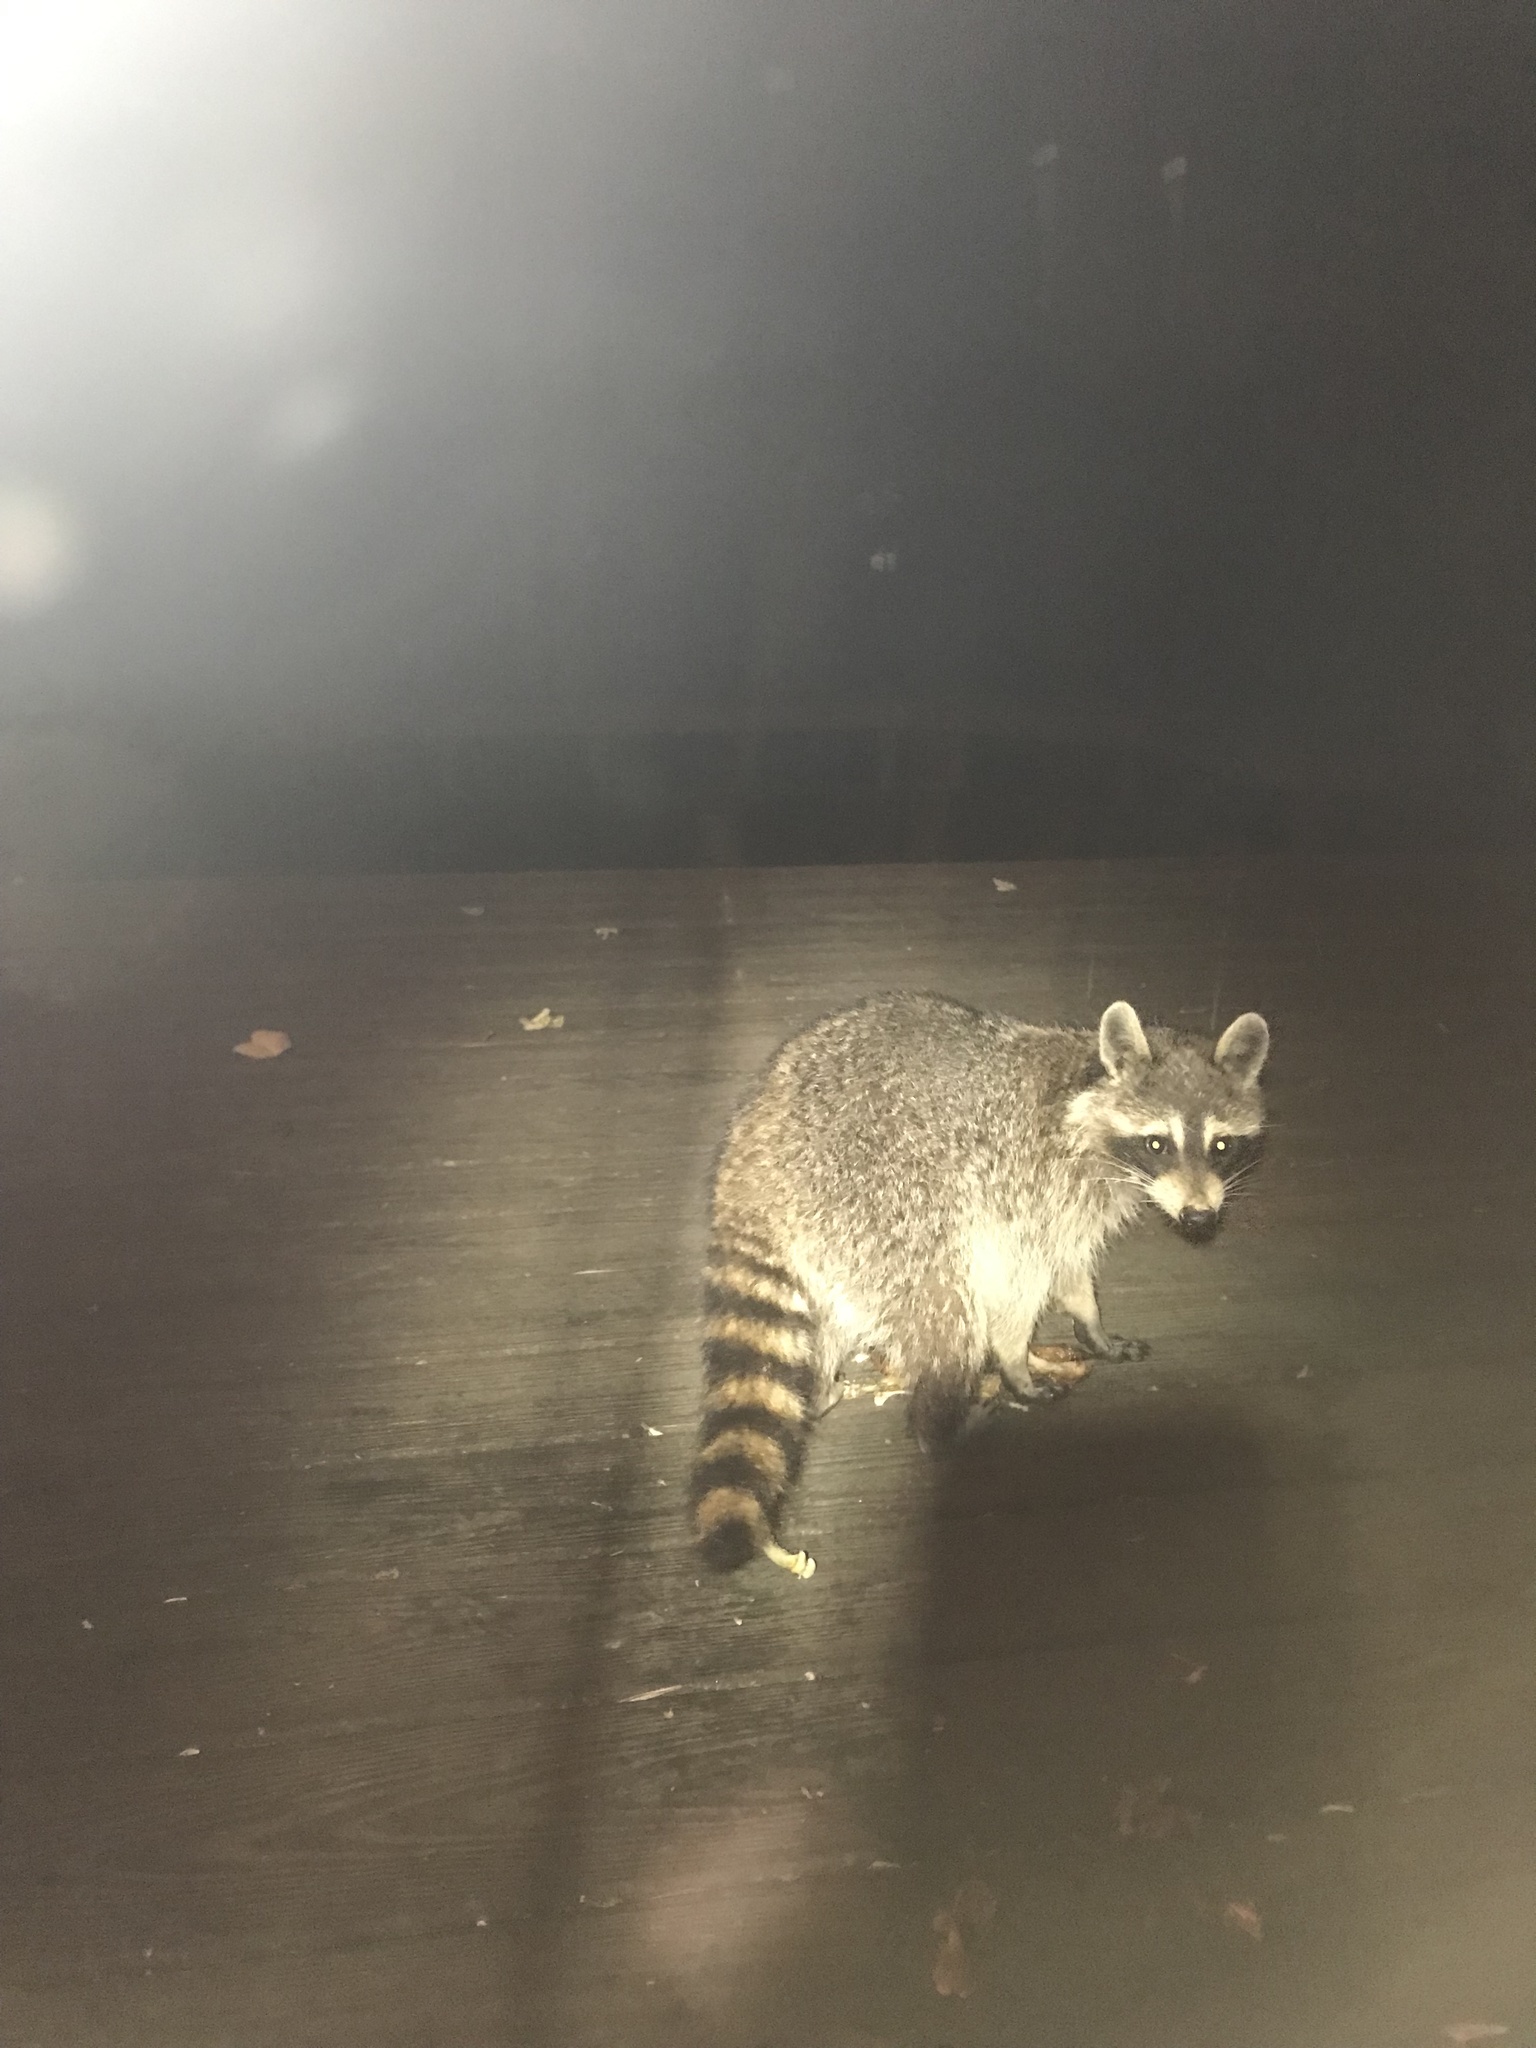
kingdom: Animalia
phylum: Chordata
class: Mammalia
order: Carnivora
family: Procyonidae
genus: Procyon
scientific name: Procyon lotor
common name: Raccoon
